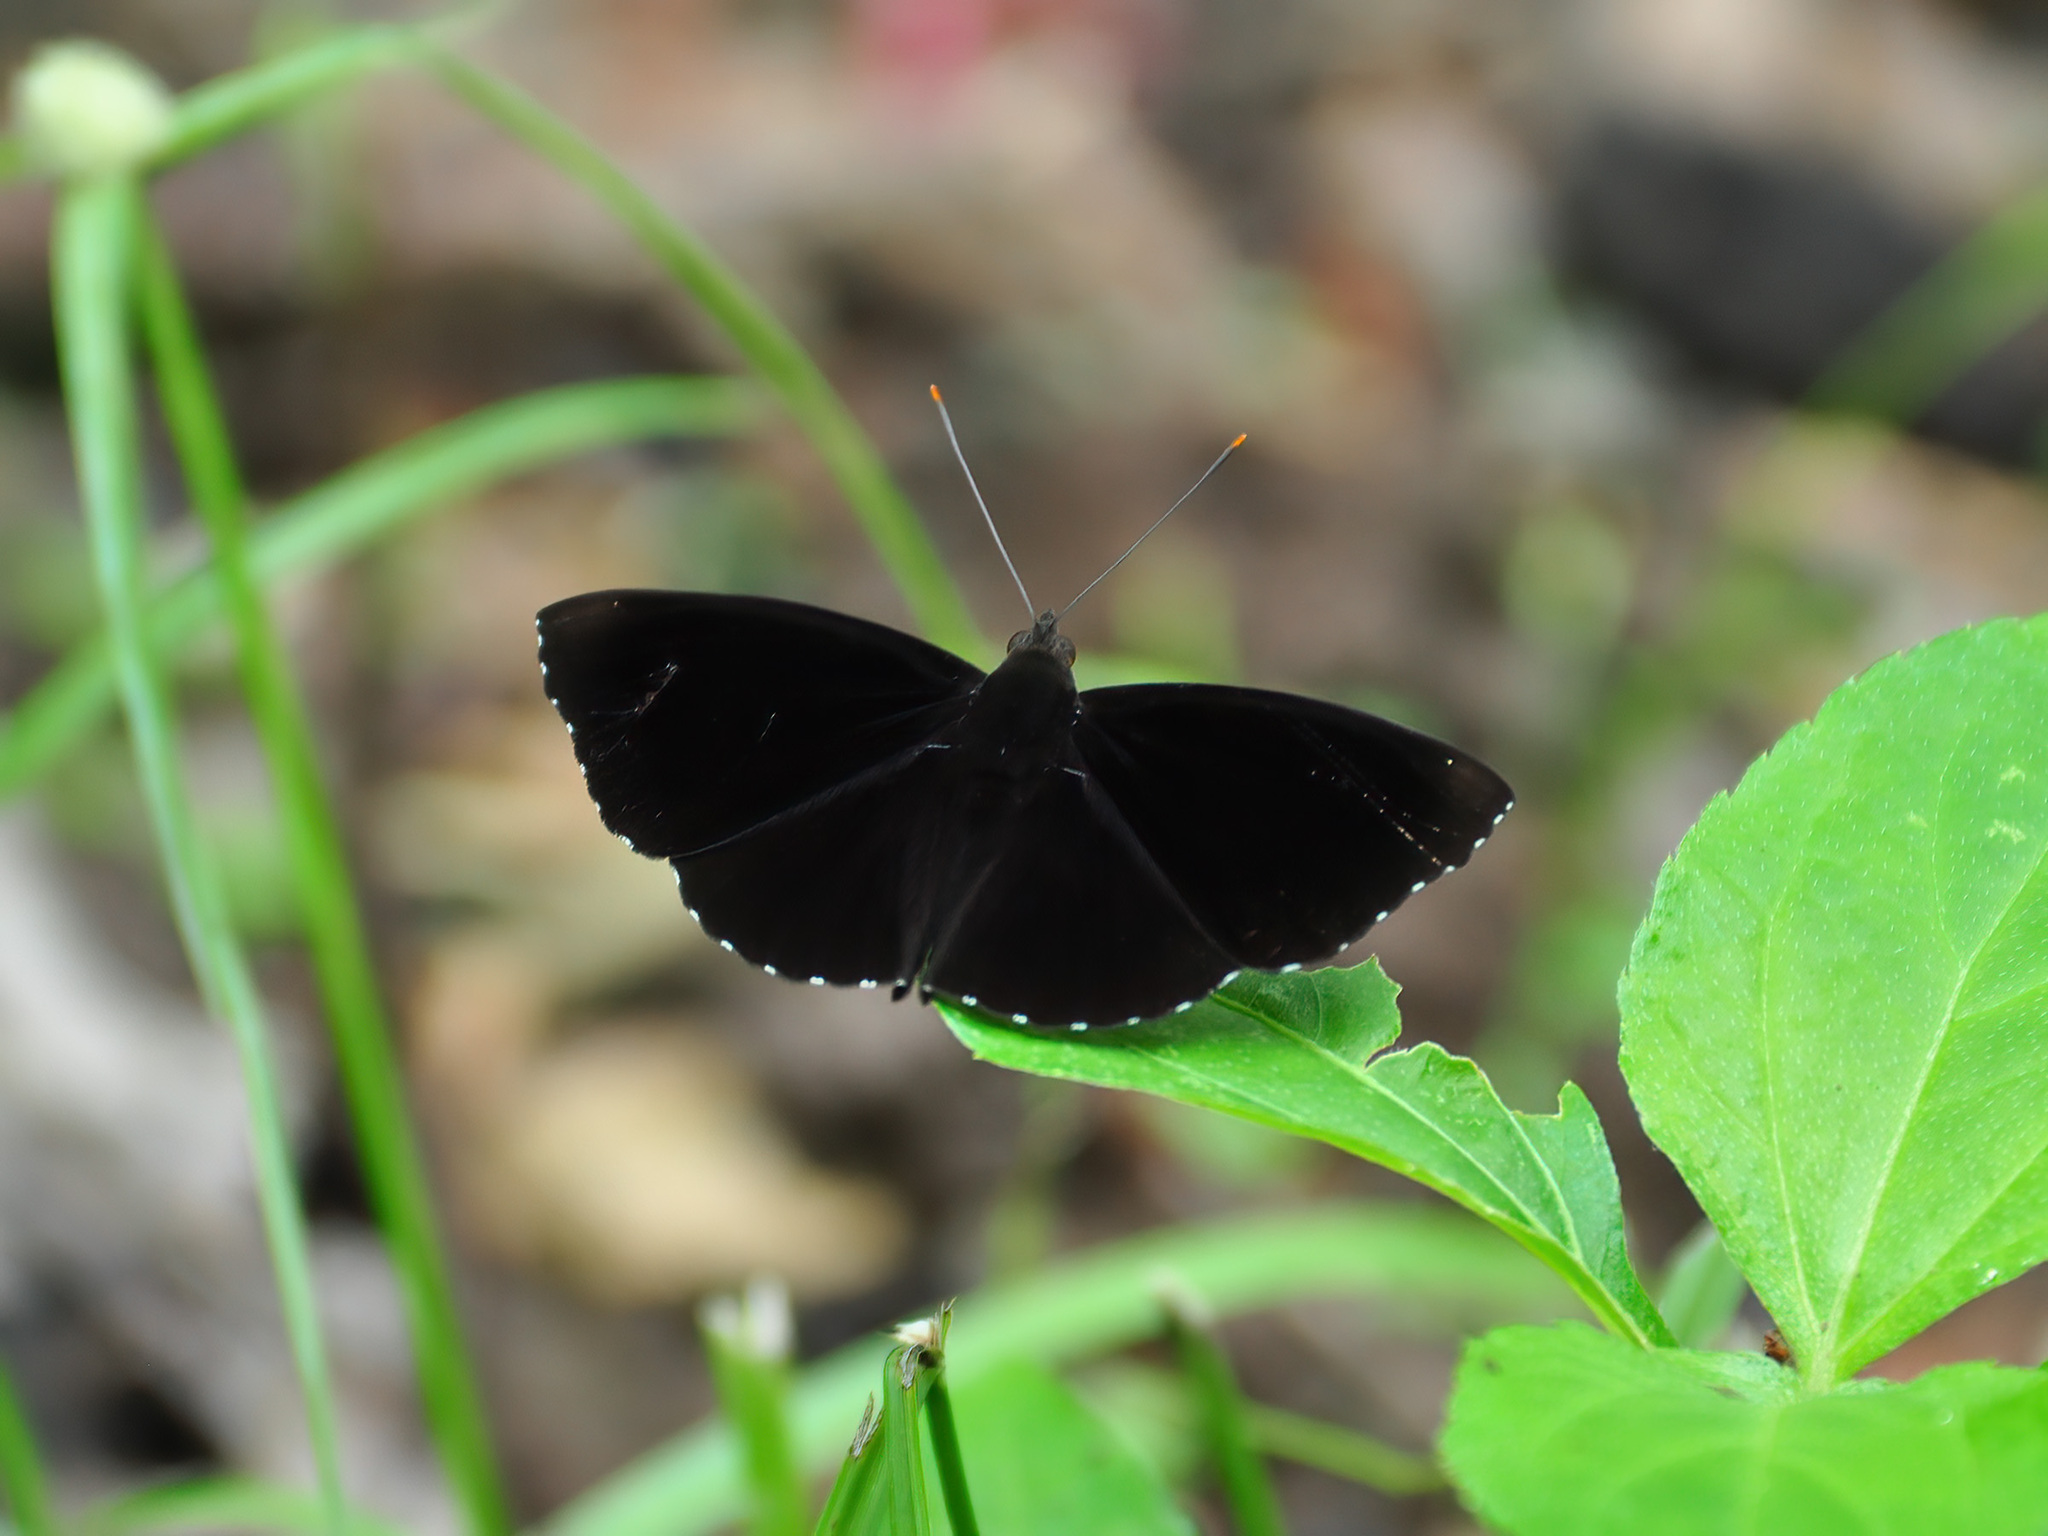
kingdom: Animalia
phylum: Arthropoda
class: Insecta
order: Lepidoptera
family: Nymphalidae
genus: Apatura
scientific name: Apatura parisatis
